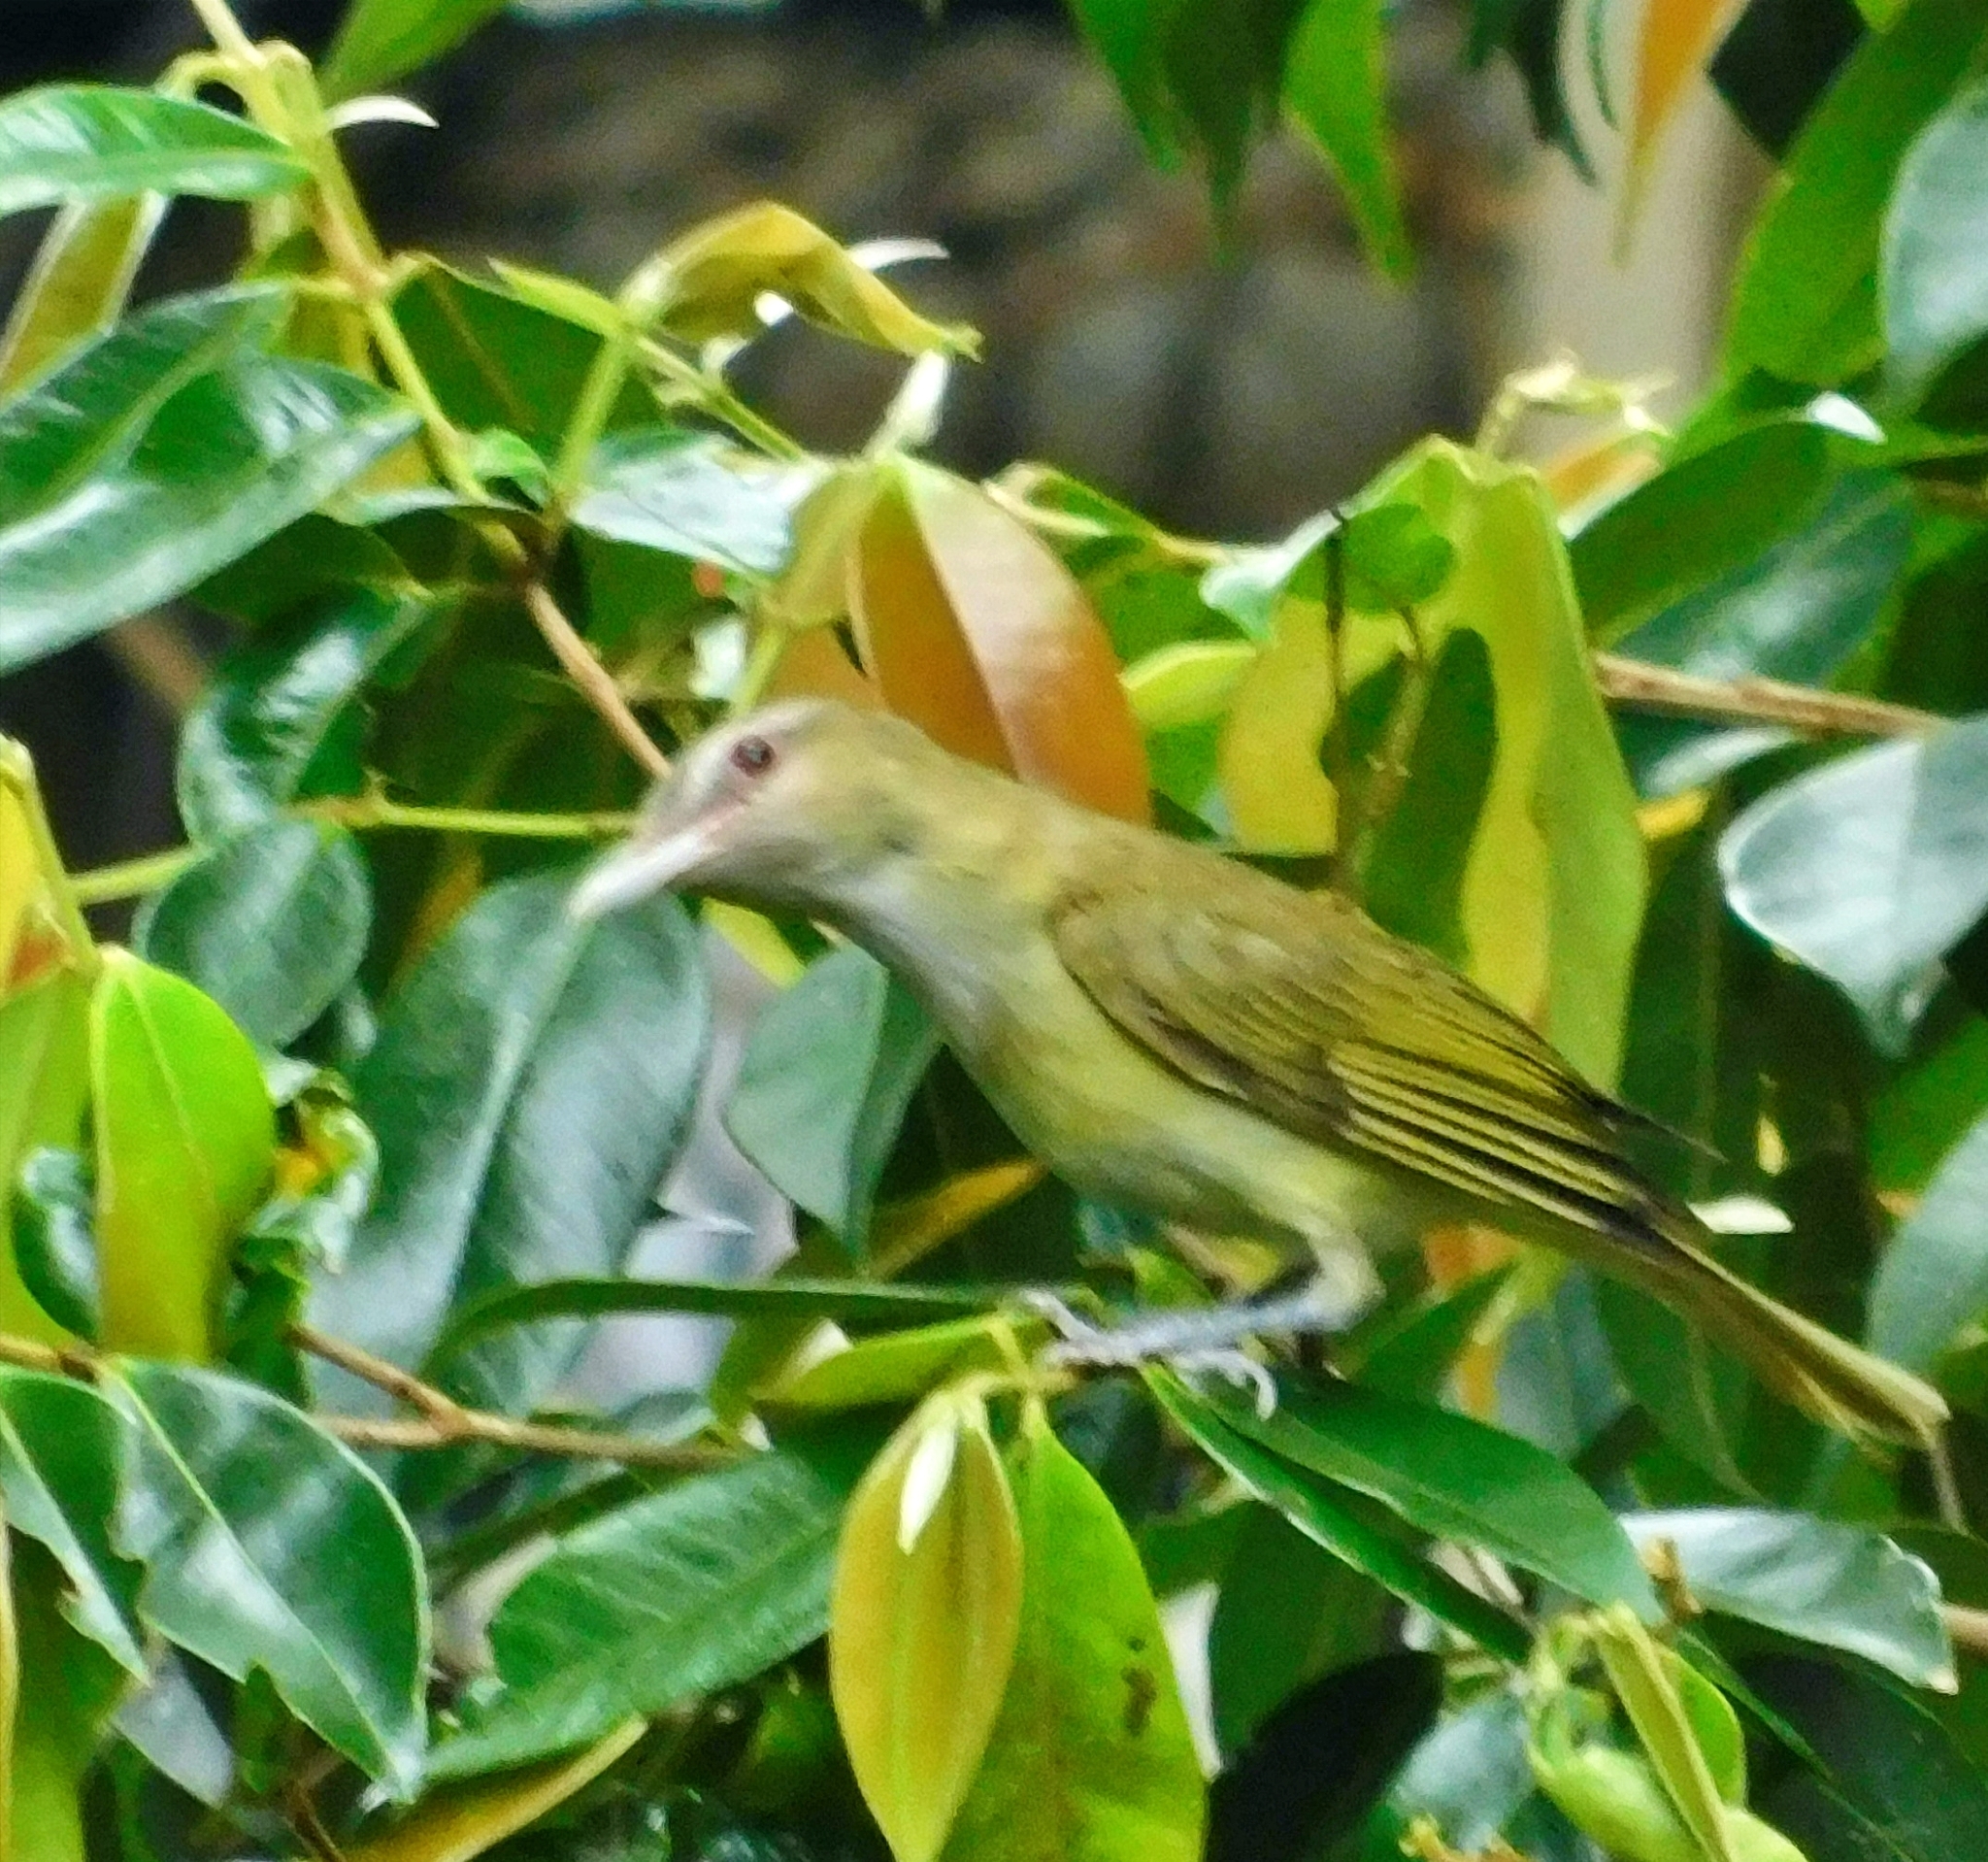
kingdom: Animalia
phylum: Chordata
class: Aves
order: Passeriformes
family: Vireonidae
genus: Vireo
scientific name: Vireo flavoviridis
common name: Yellow-green vireo
